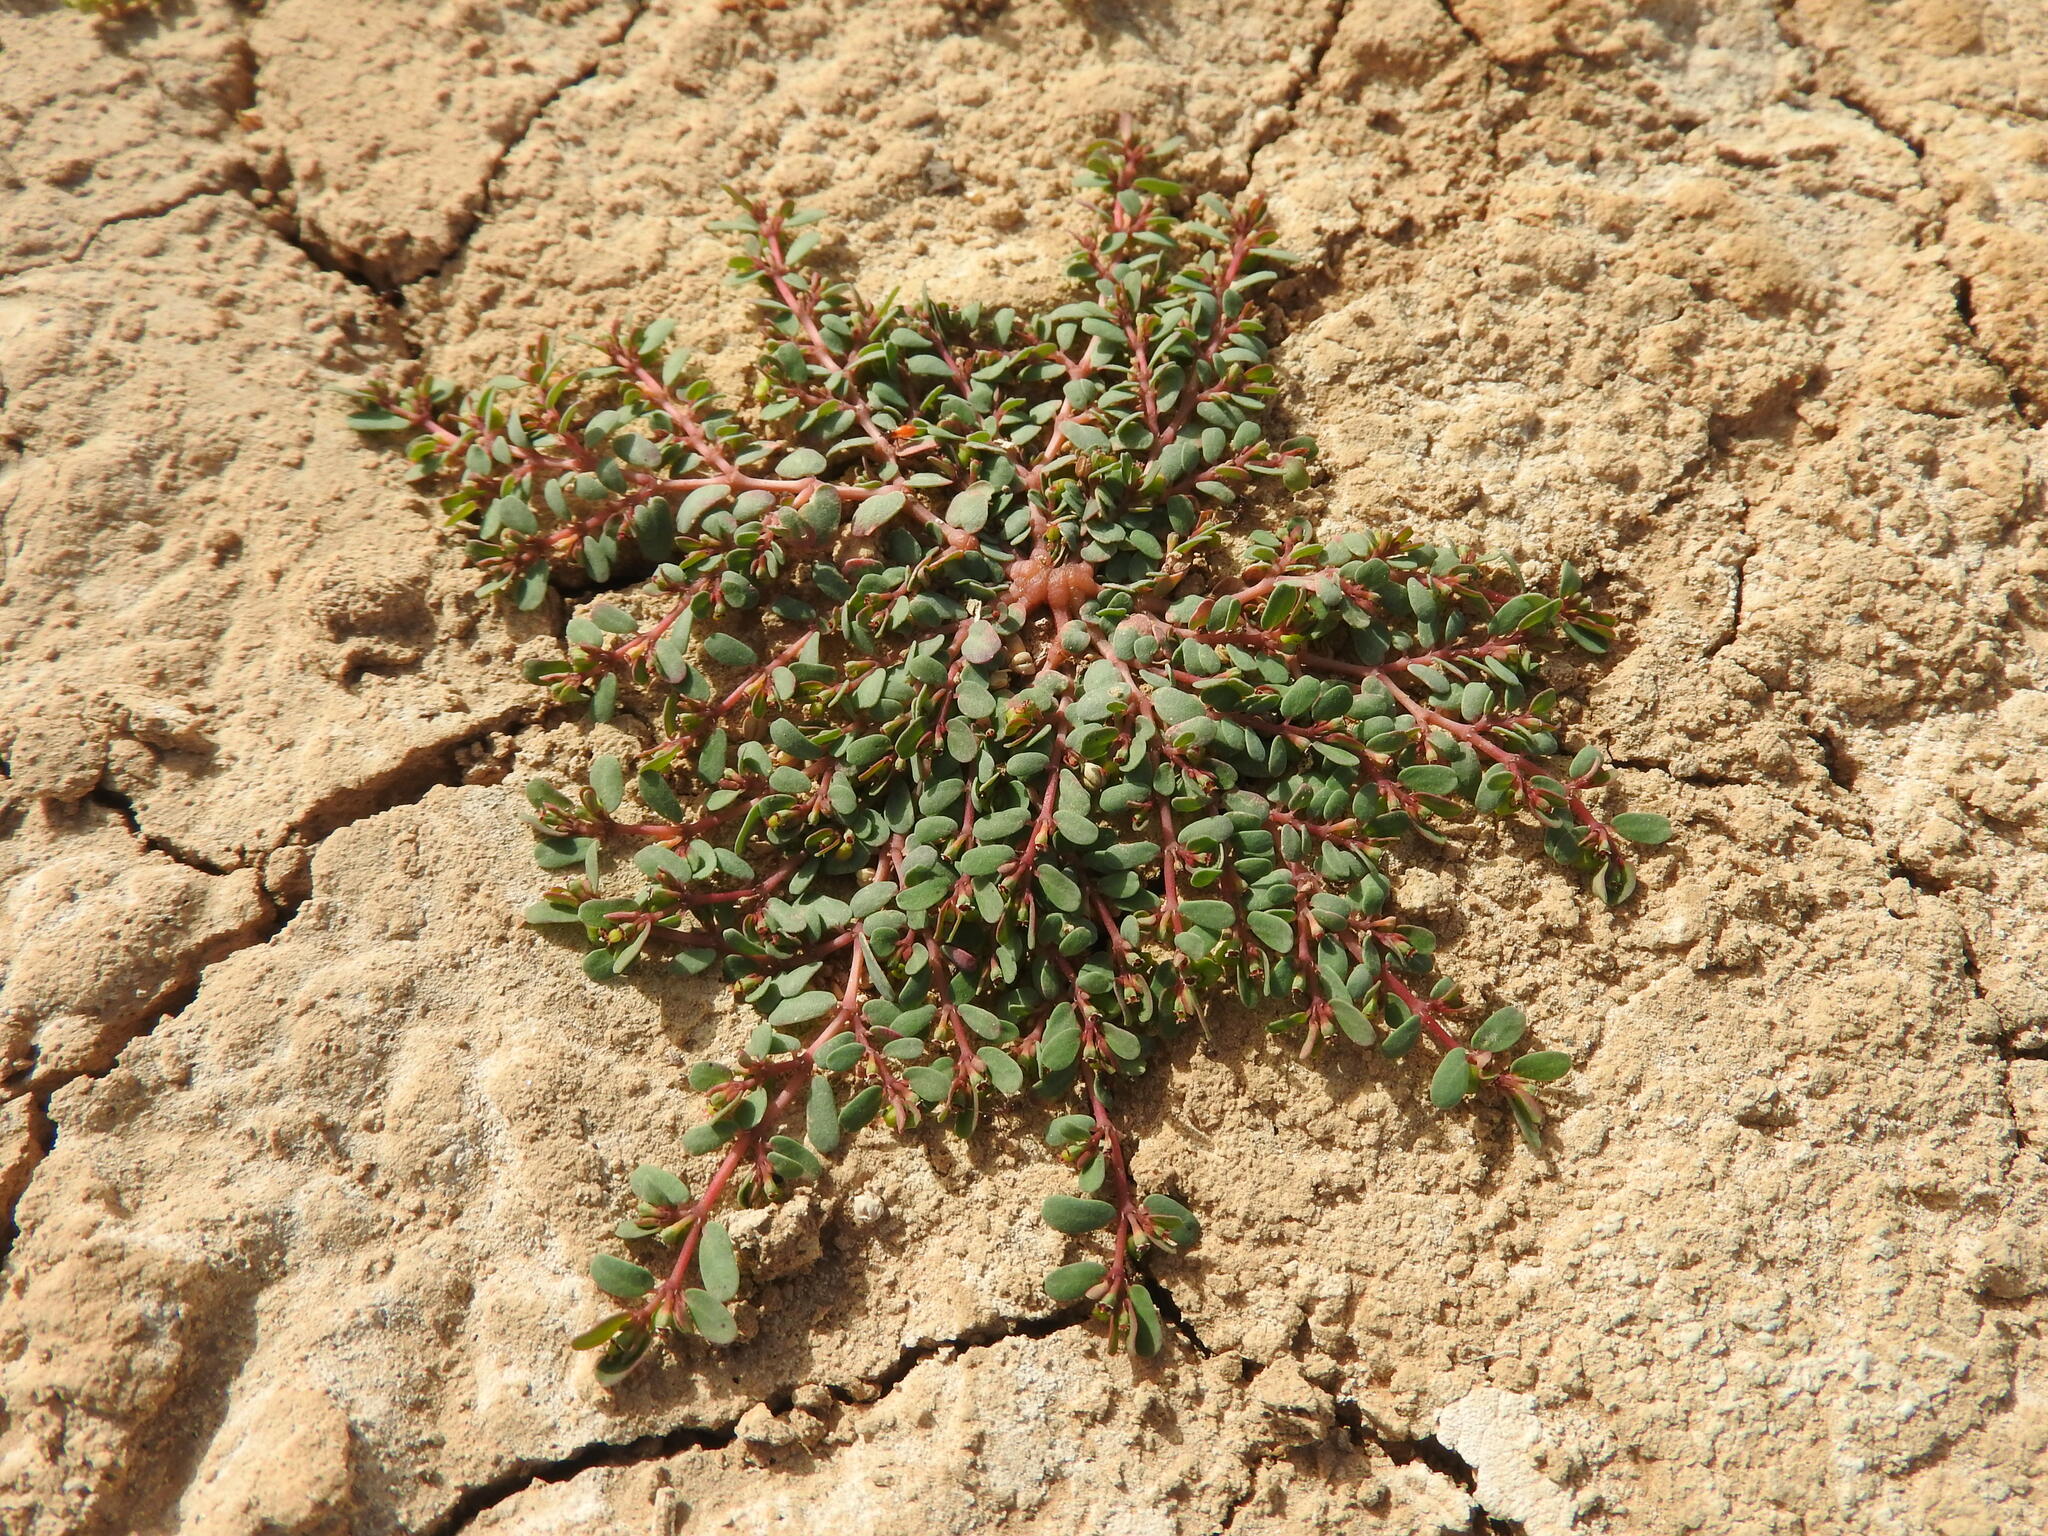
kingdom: Plantae
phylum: Tracheophyta
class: Magnoliopsida
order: Malpighiales
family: Euphorbiaceae
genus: Euphorbia
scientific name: Euphorbia granulata
